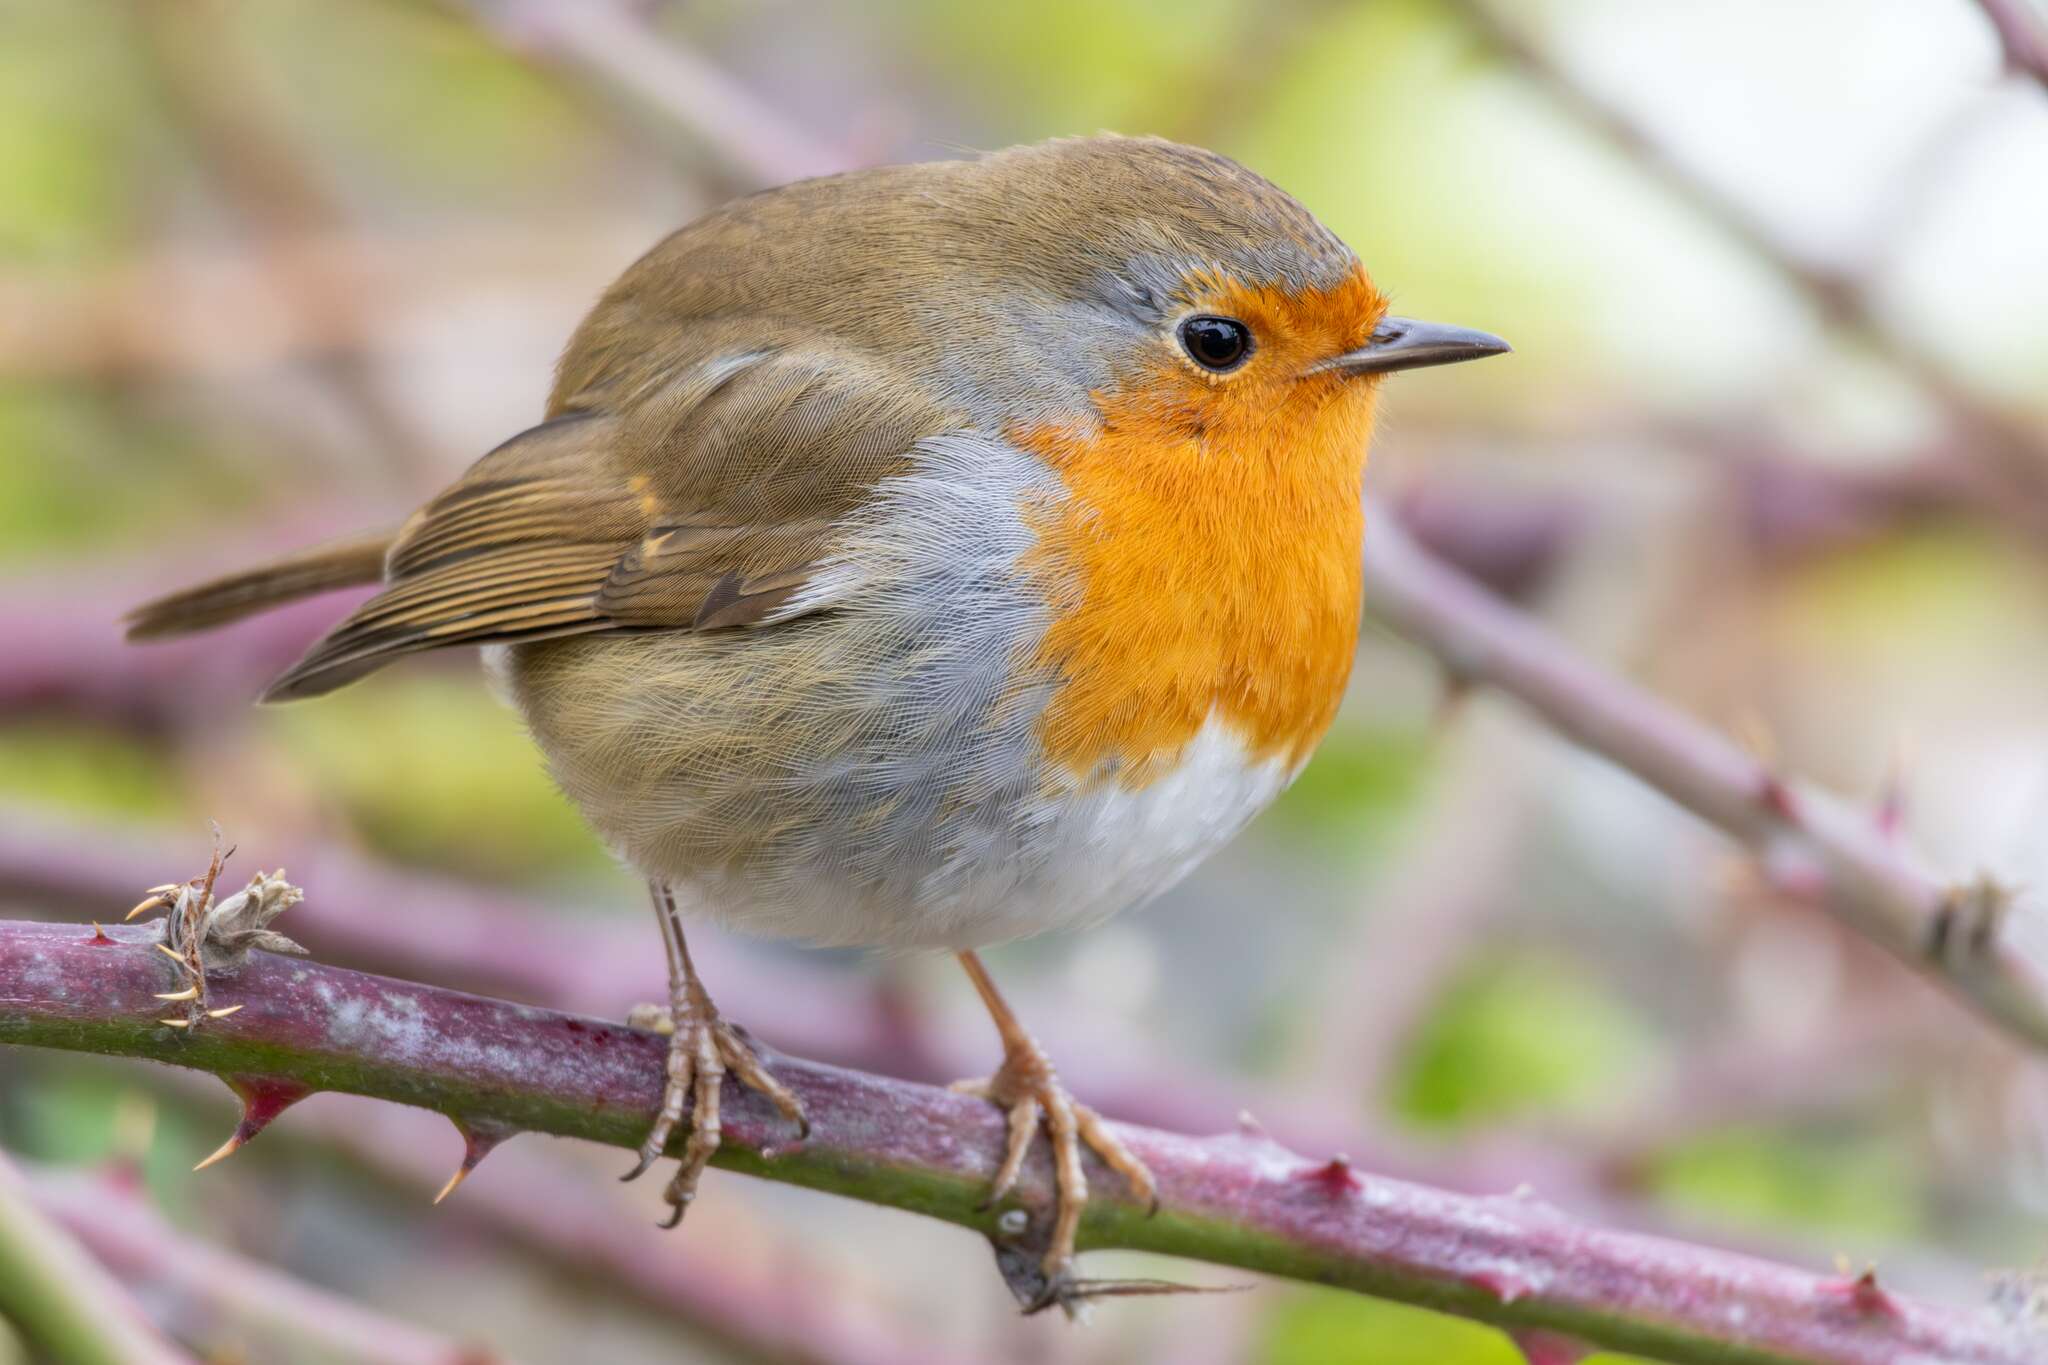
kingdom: Animalia
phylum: Chordata
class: Aves
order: Passeriformes
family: Muscicapidae
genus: Erithacus
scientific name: Erithacus rubecula
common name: European robin
